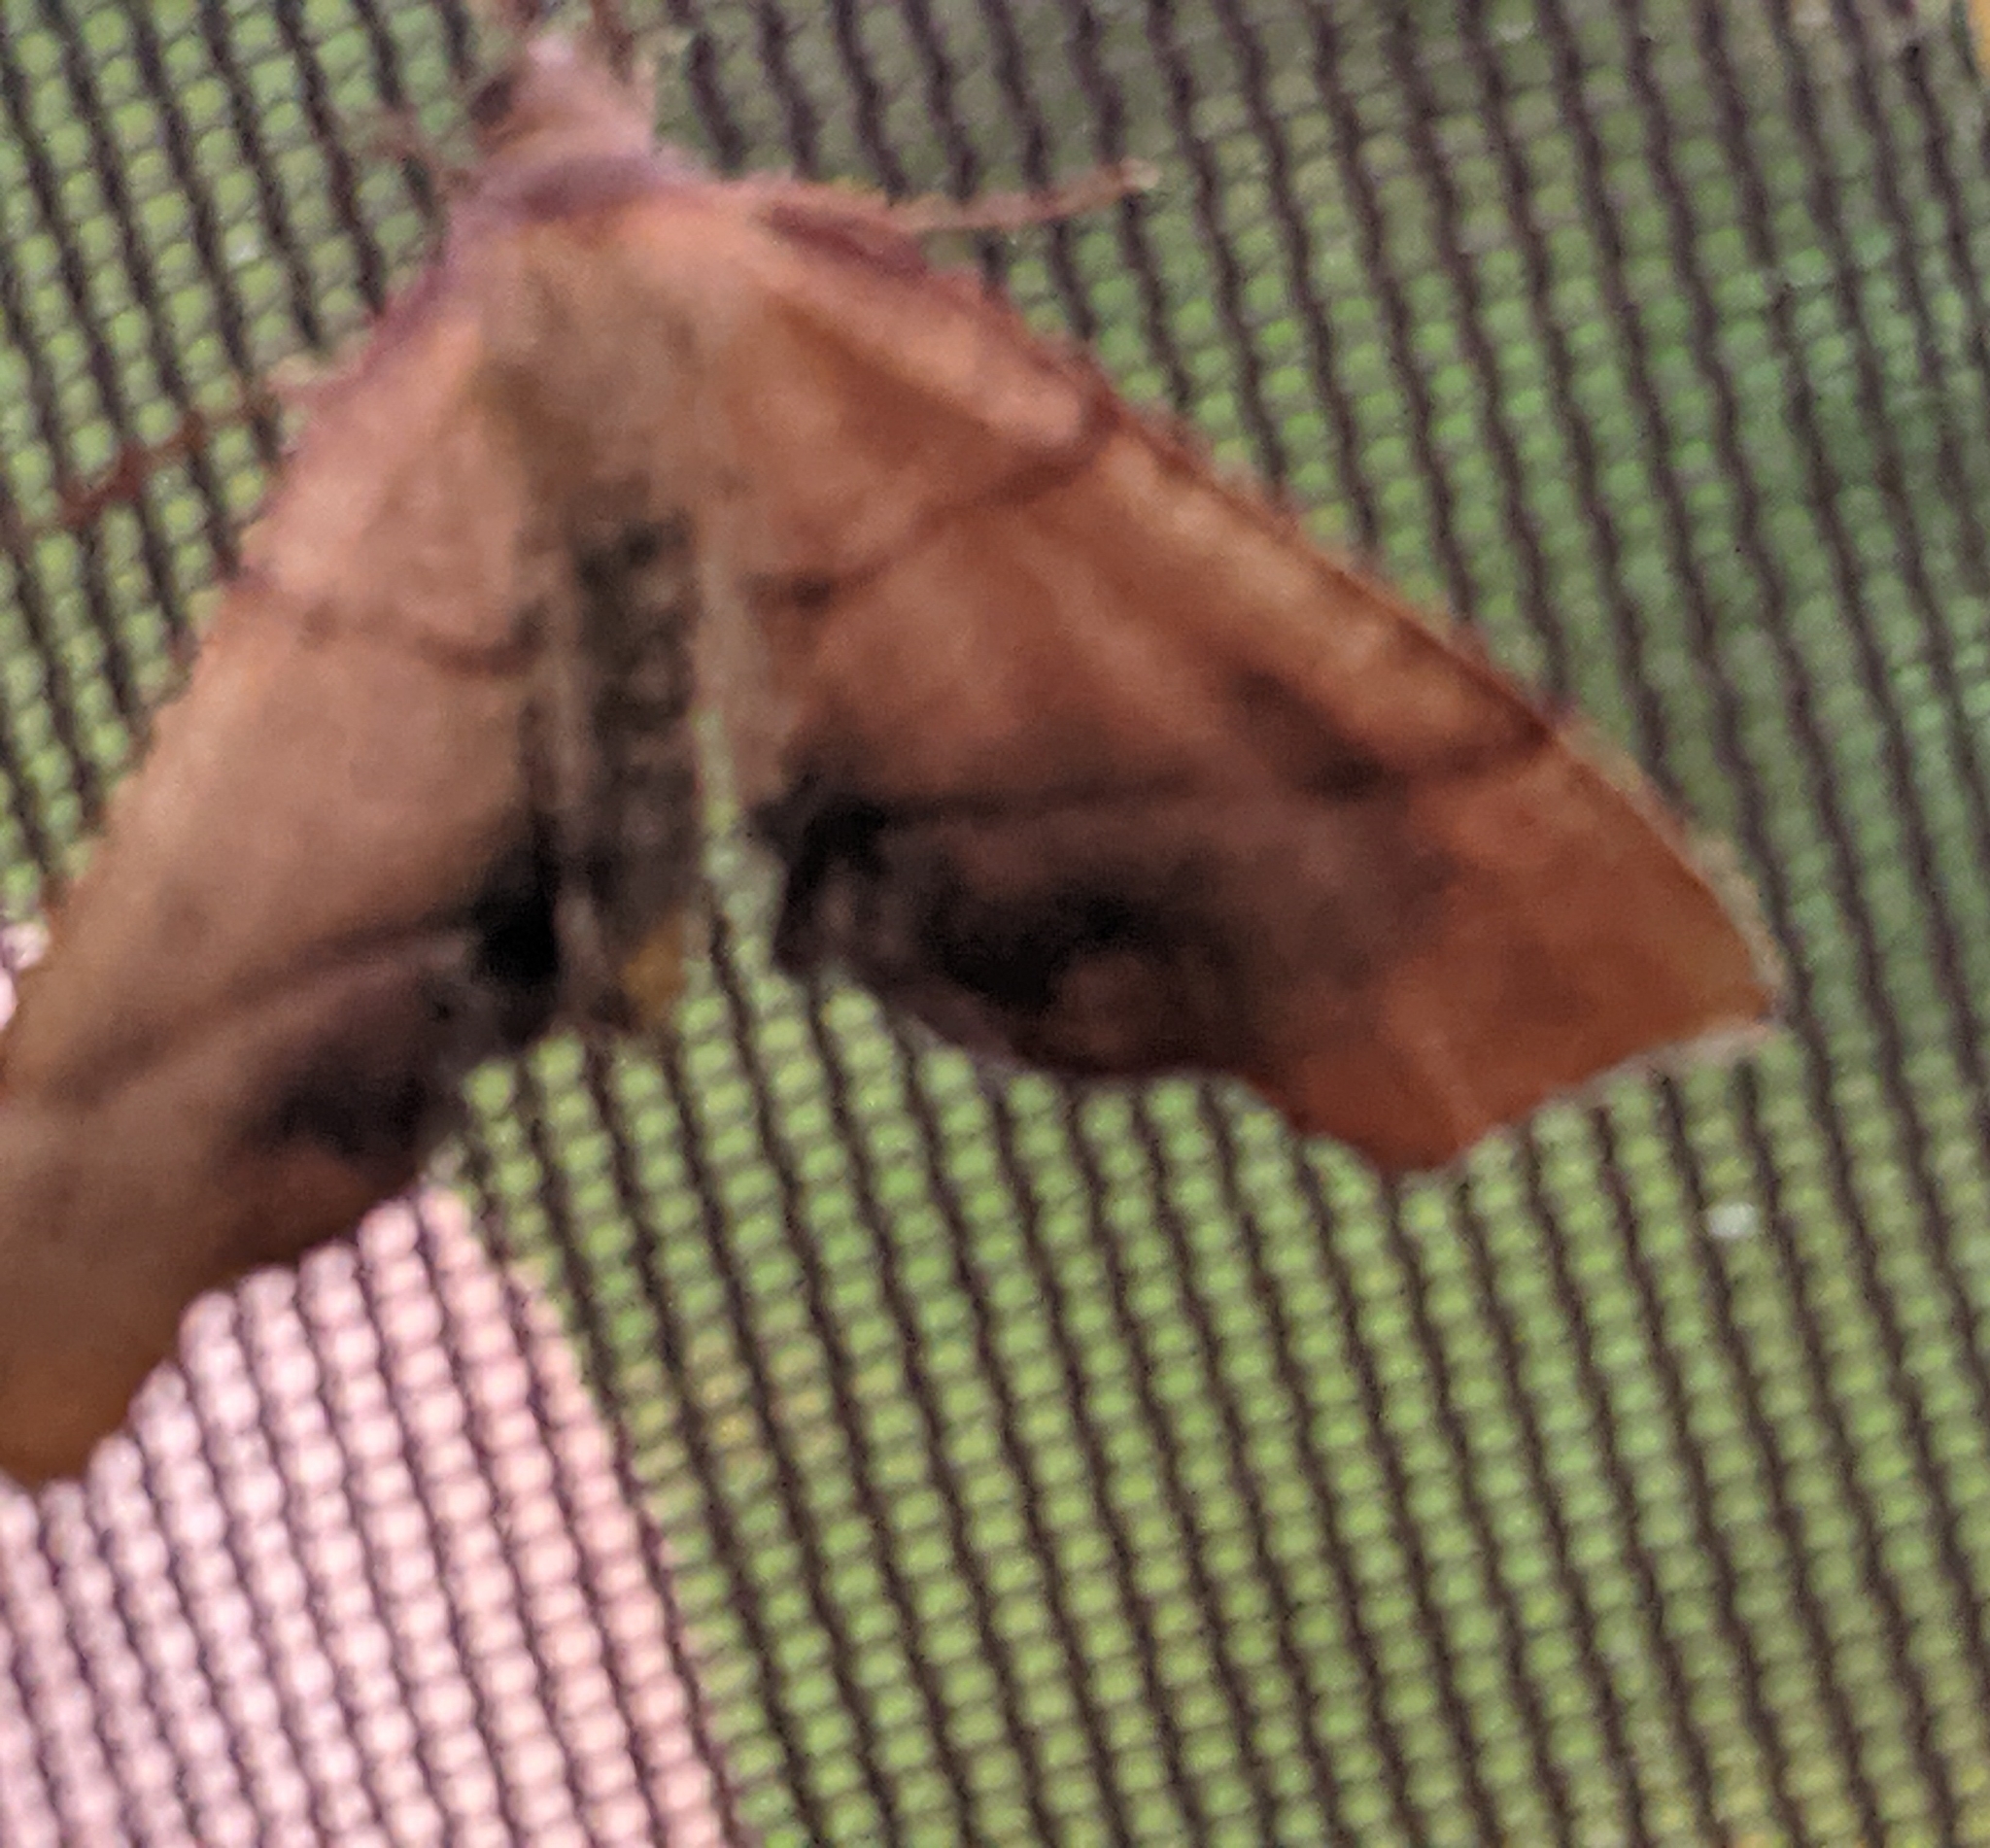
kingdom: Animalia
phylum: Arthropoda
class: Insecta
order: Lepidoptera
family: Geometridae
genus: Plagodis
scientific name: Plagodis phlogosaria
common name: Straight-lined plagodis
